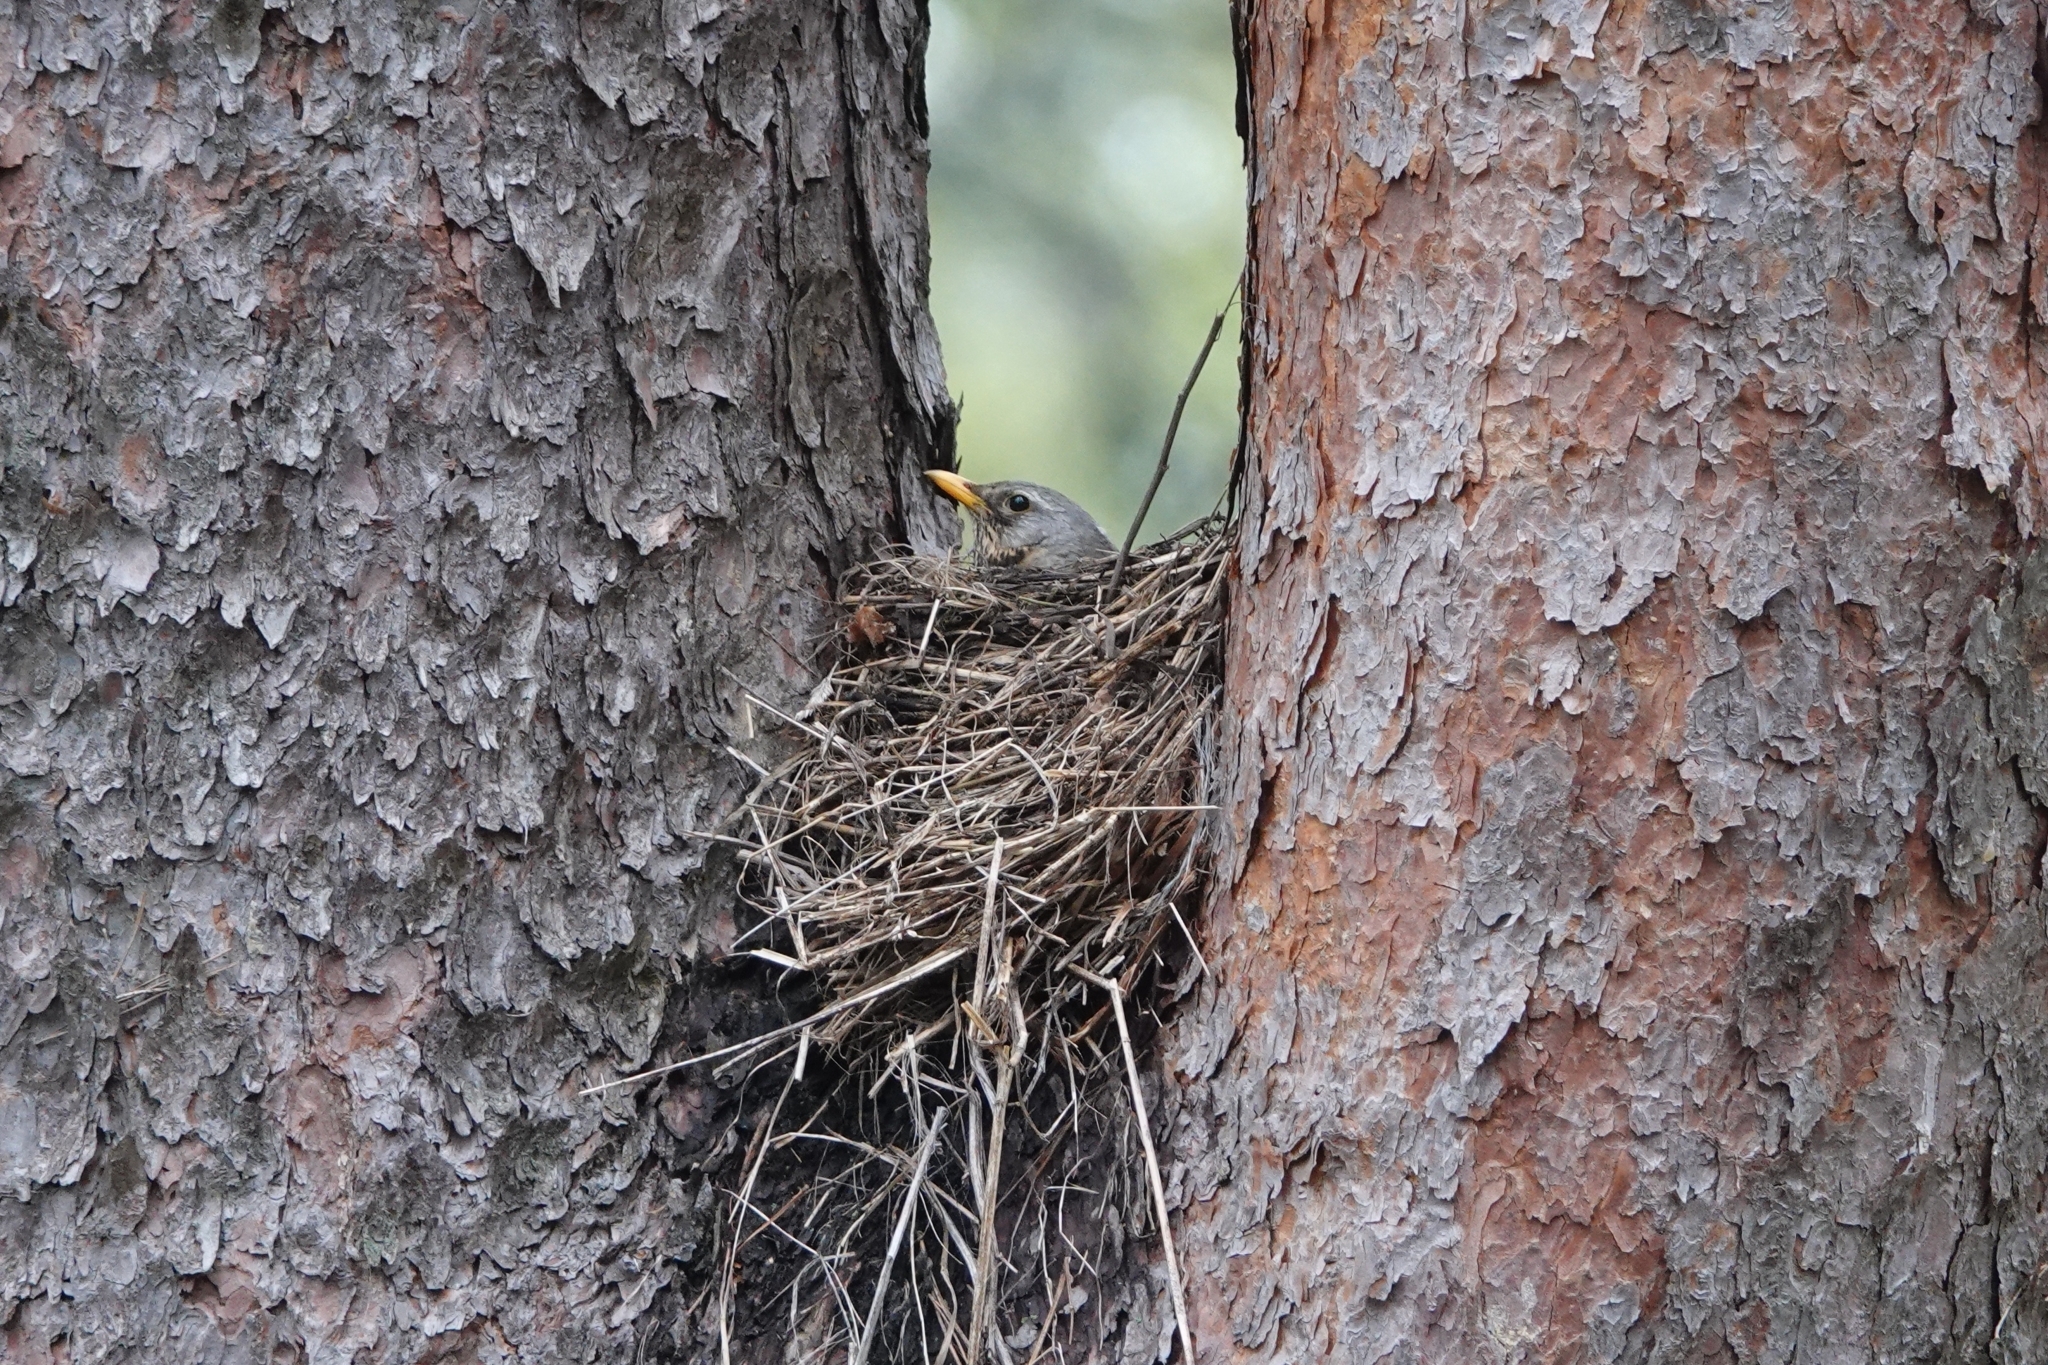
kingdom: Animalia
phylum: Chordata
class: Aves
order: Passeriformes
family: Turdidae
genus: Turdus
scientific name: Turdus pilaris
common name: Fieldfare
